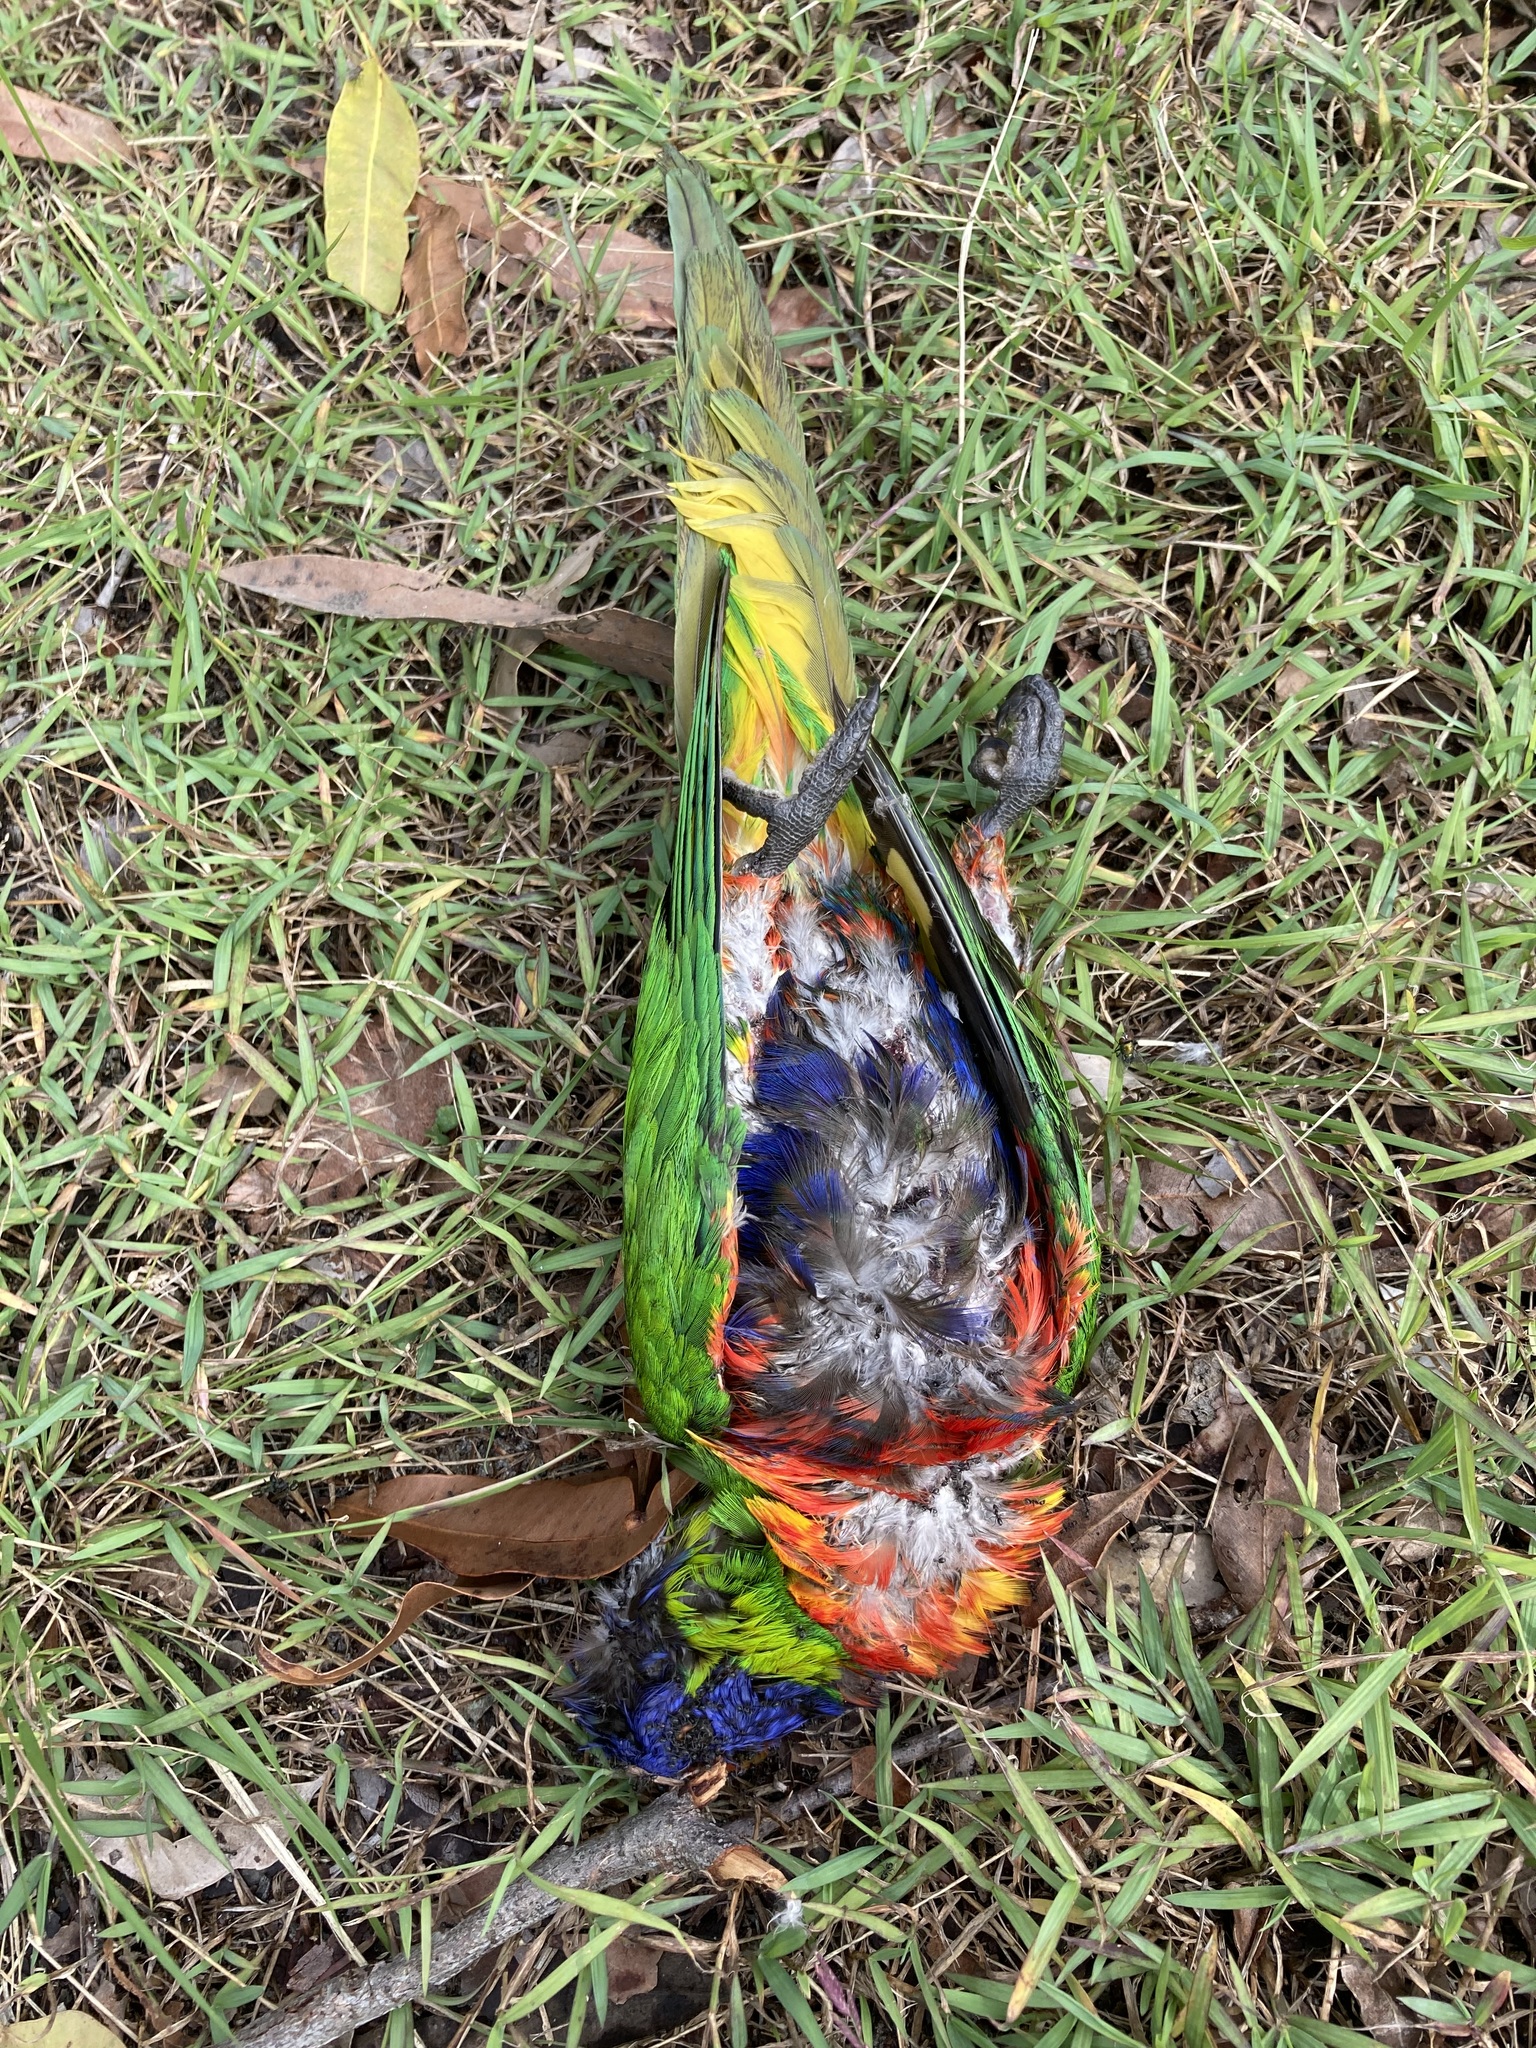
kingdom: Animalia
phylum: Chordata
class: Aves
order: Psittaciformes
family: Psittacidae
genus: Trichoglossus
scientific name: Trichoglossus haematodus
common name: Coconut lorikeet
